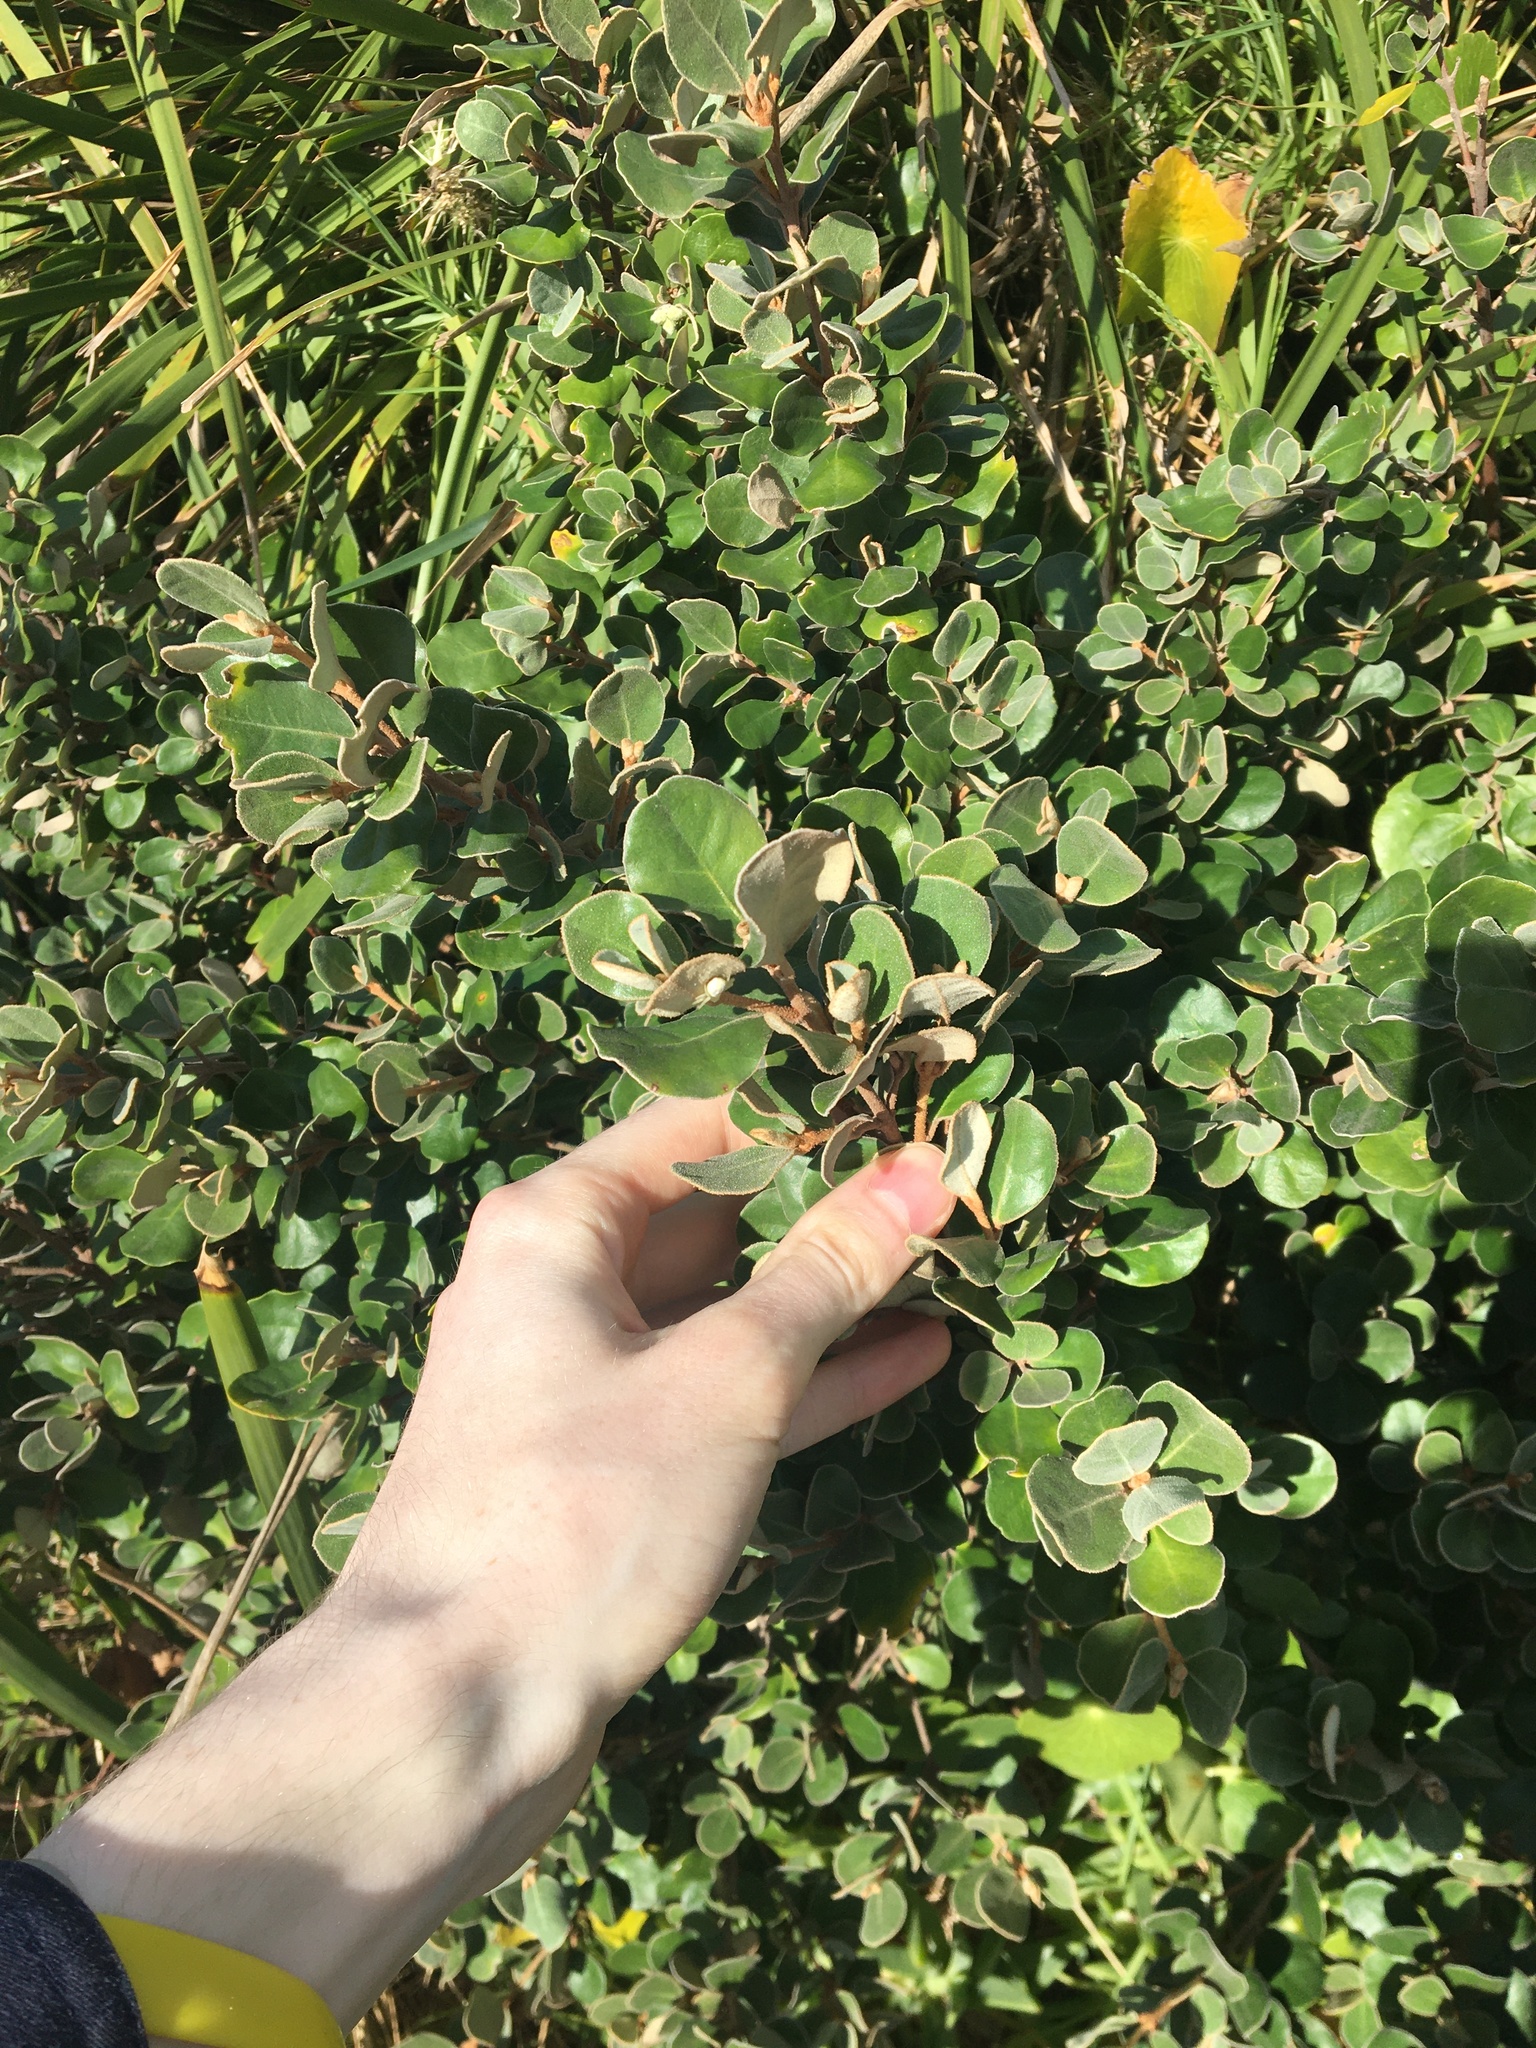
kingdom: Plantae
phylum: Tracheophyta
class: Magnoliopsida
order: Sapindales
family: Rutaceae
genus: Correa
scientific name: Correa alba
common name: White correa
